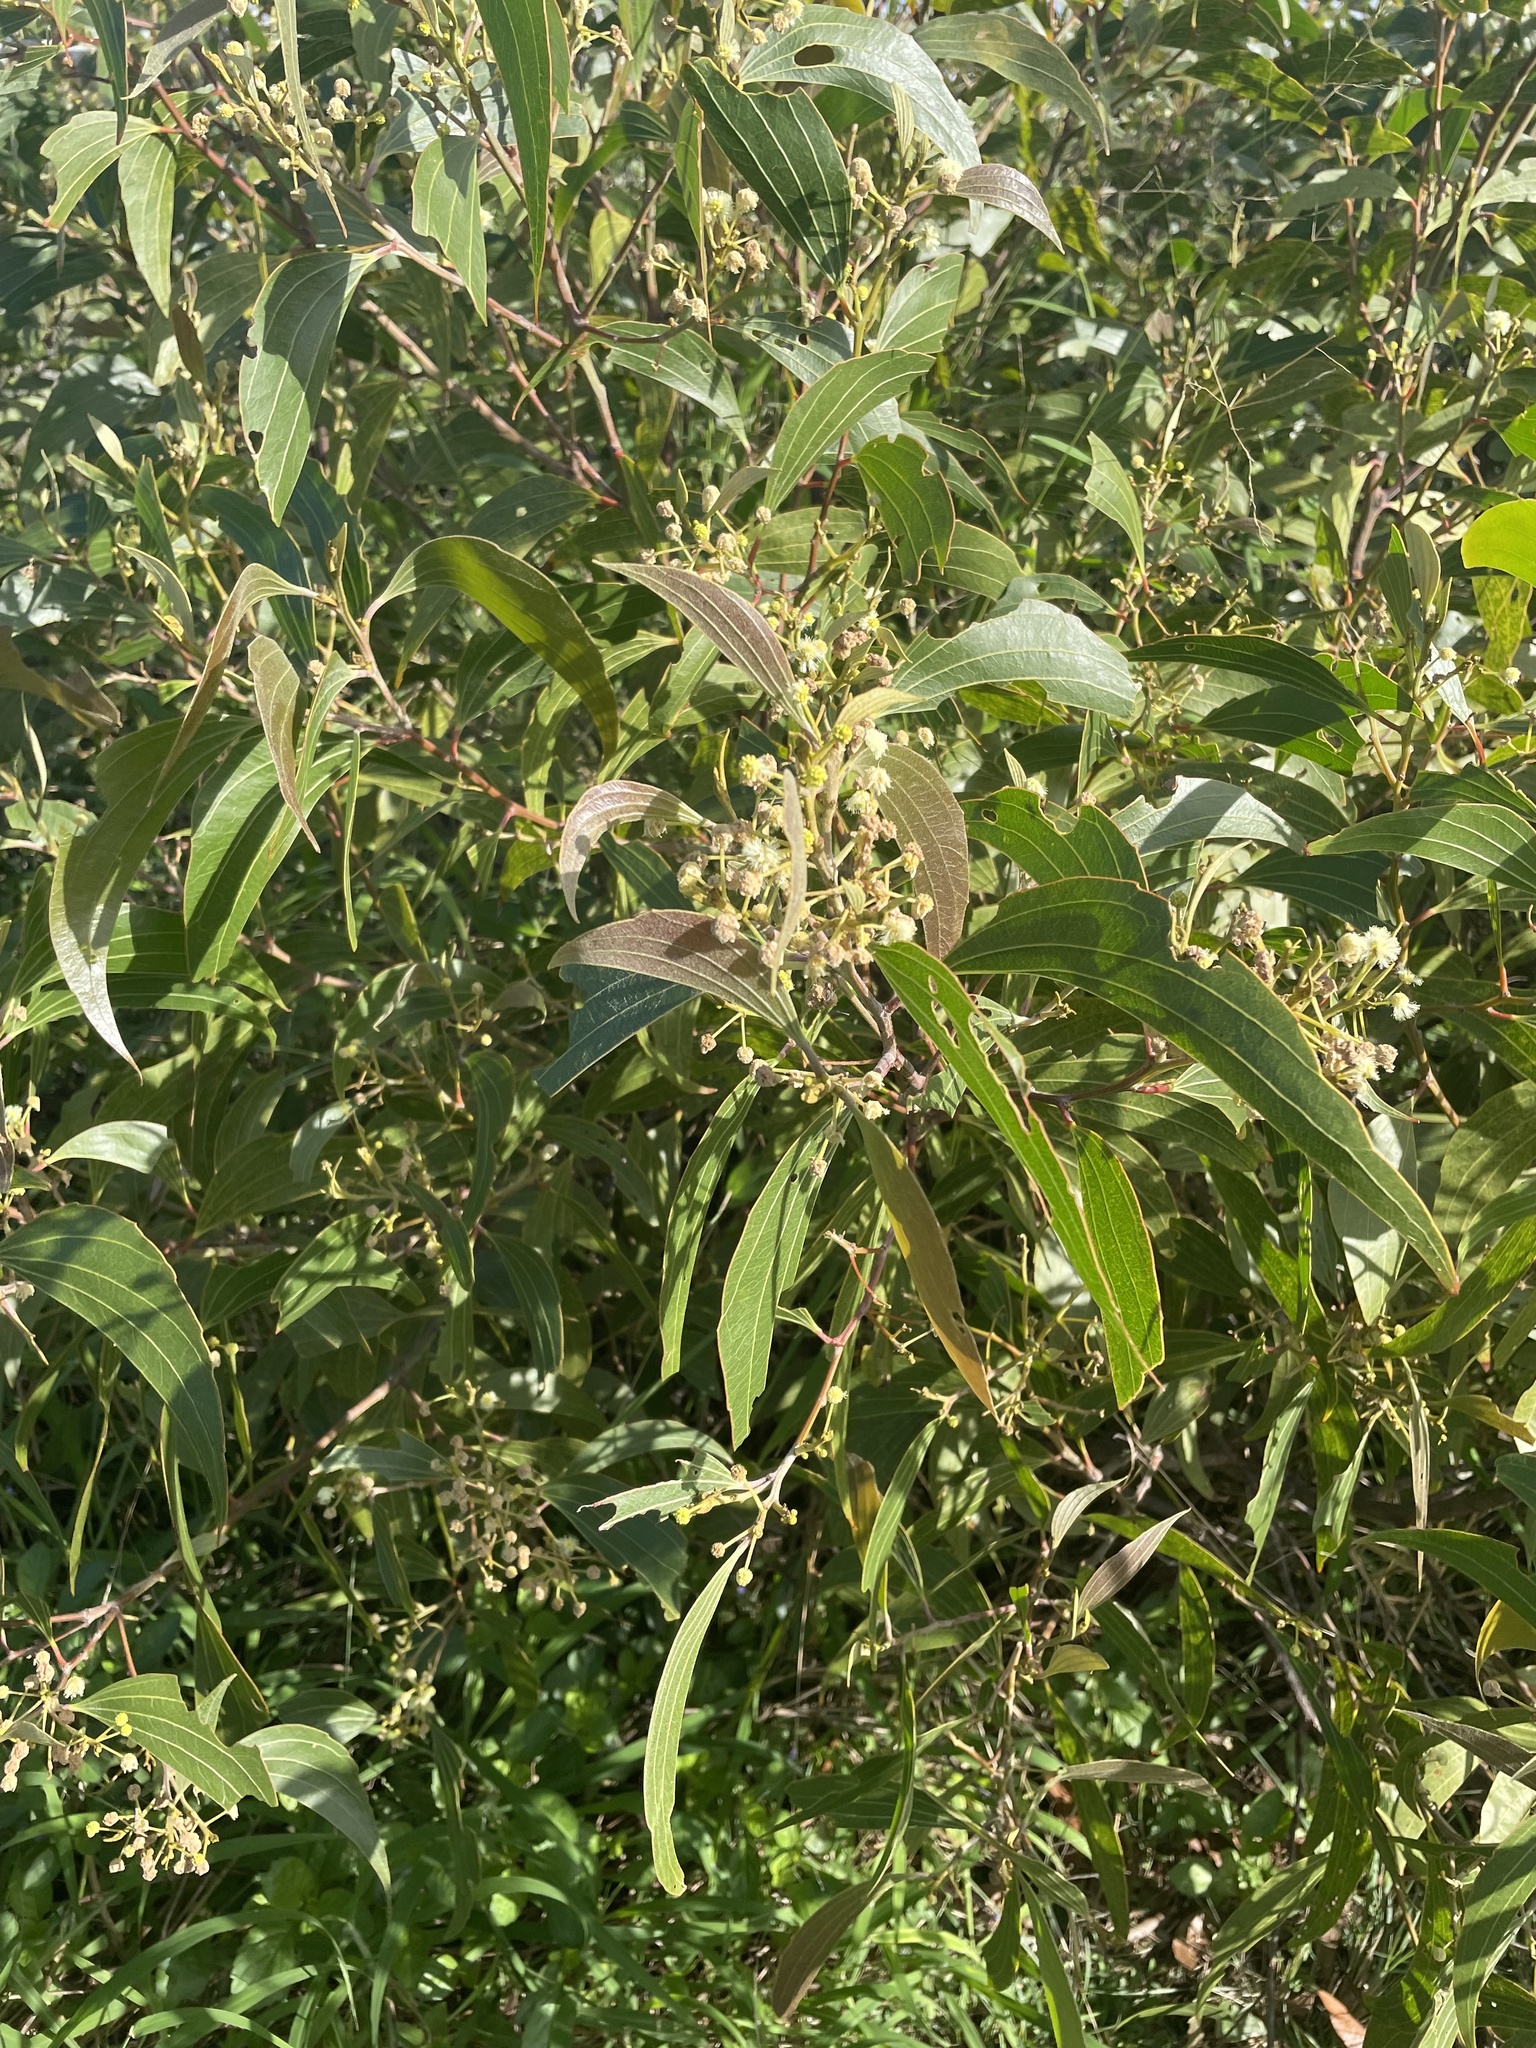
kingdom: Plantae
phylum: Tracheophyta
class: Magnoliopsida
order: Fabales
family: Fabaceae
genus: Acacia
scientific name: Acacia flavescens
